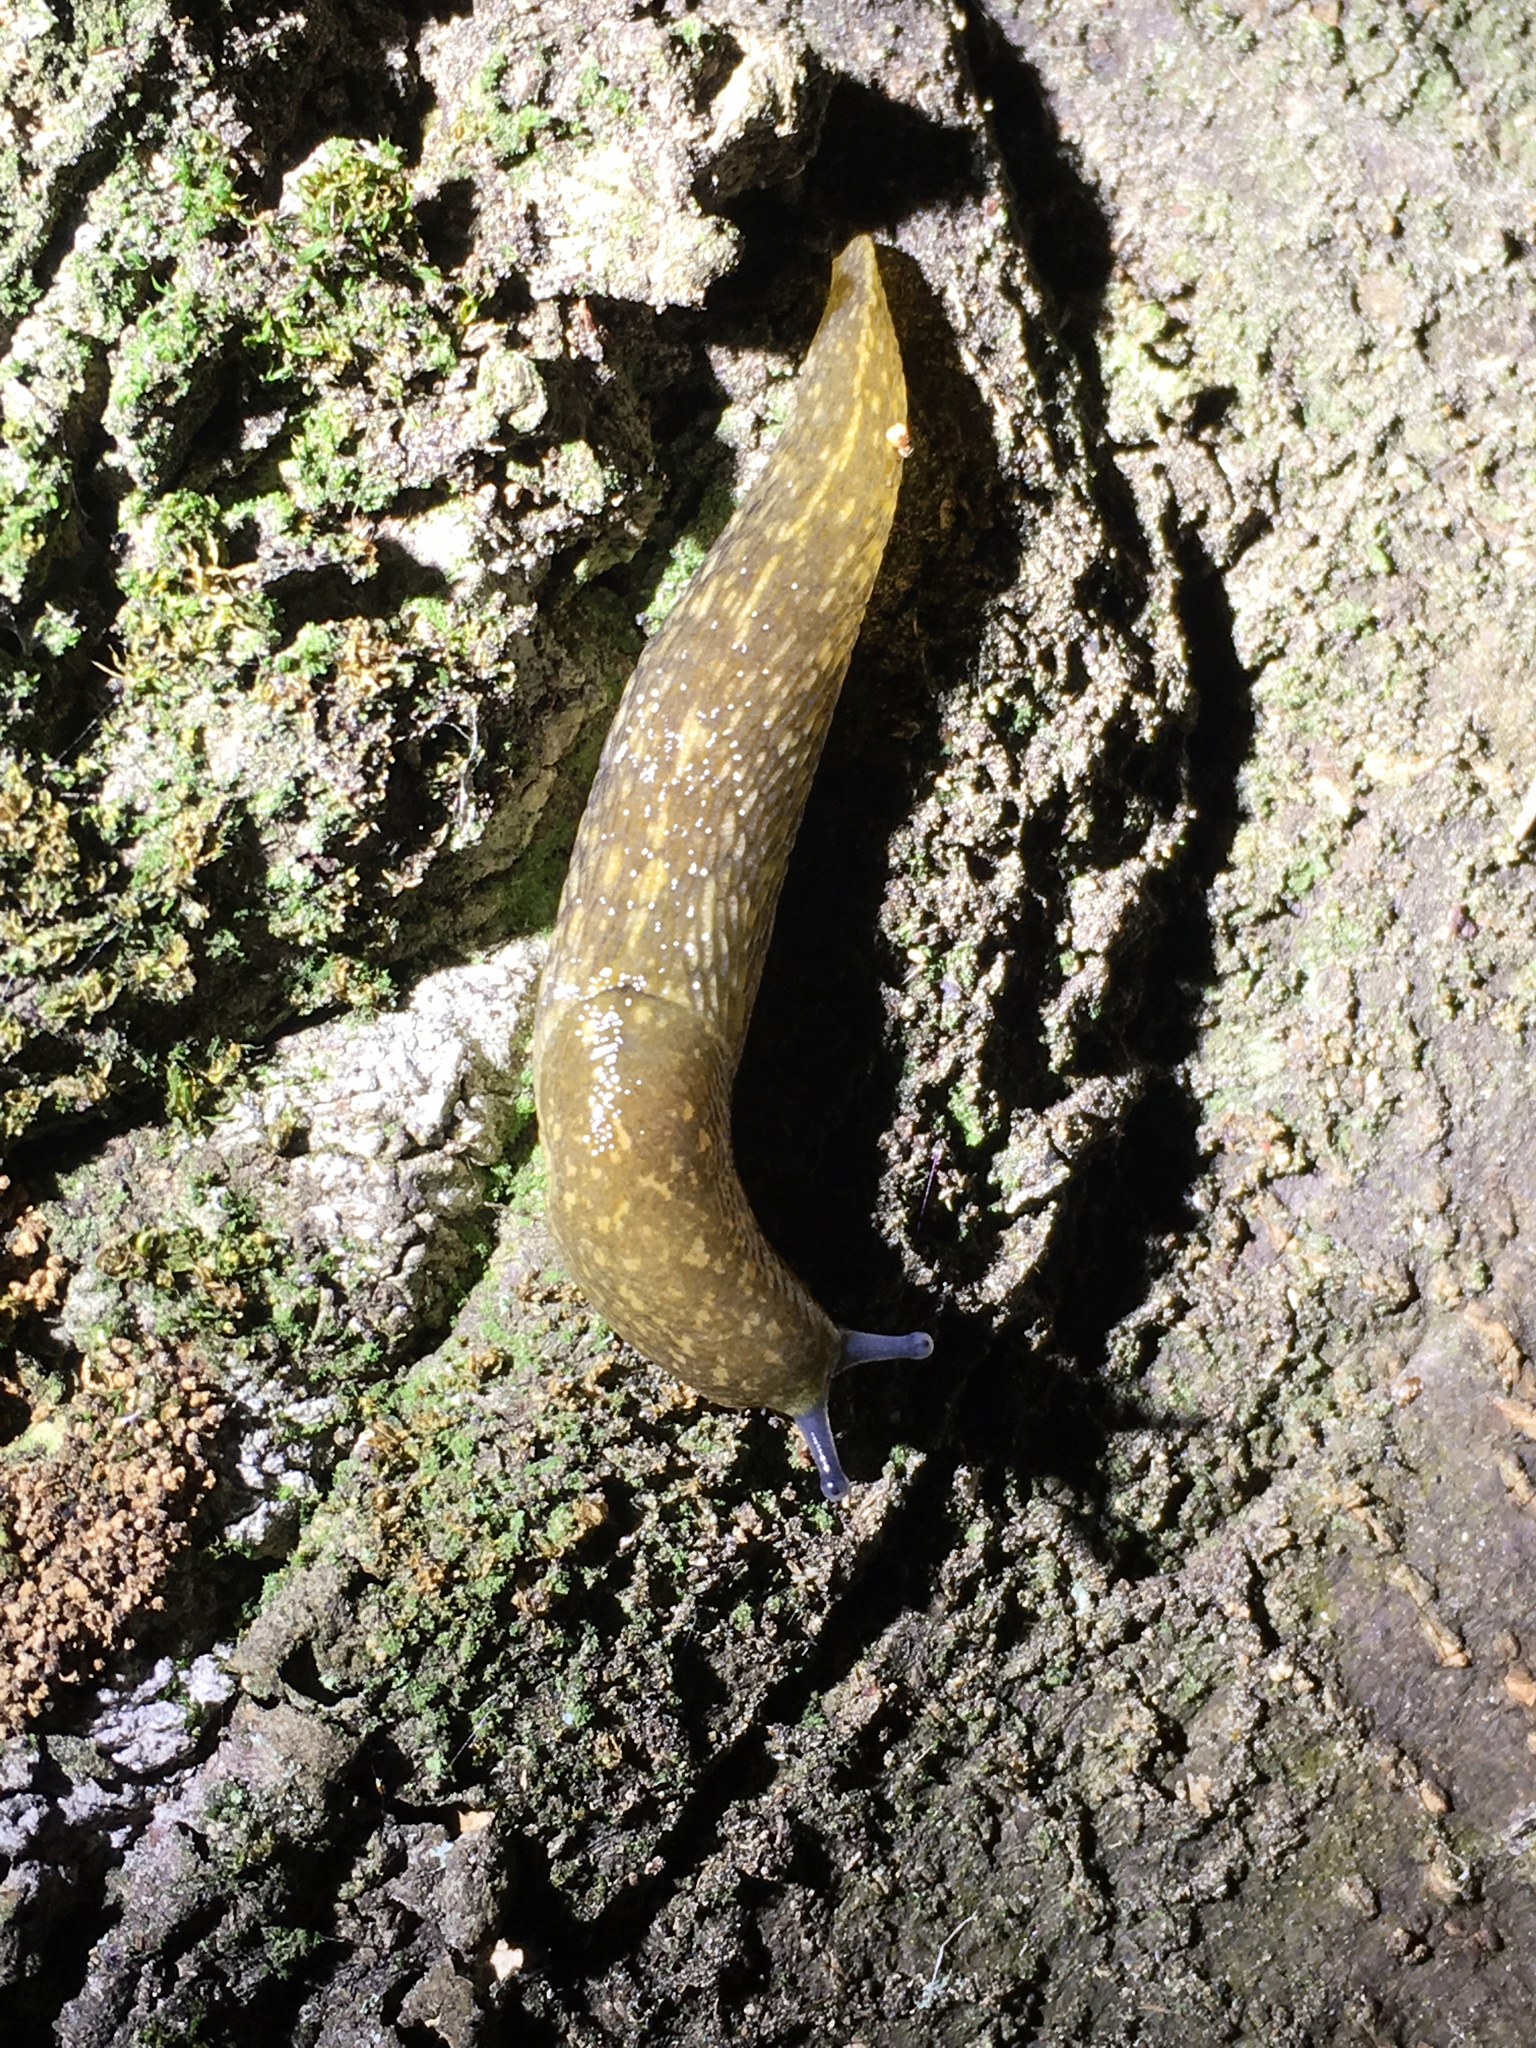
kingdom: Animalia
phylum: Mollusca
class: Gastropoda
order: Stylommatophora
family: Limacidae
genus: Limacus
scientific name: Limacus flavus
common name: Yellow gardenslug
